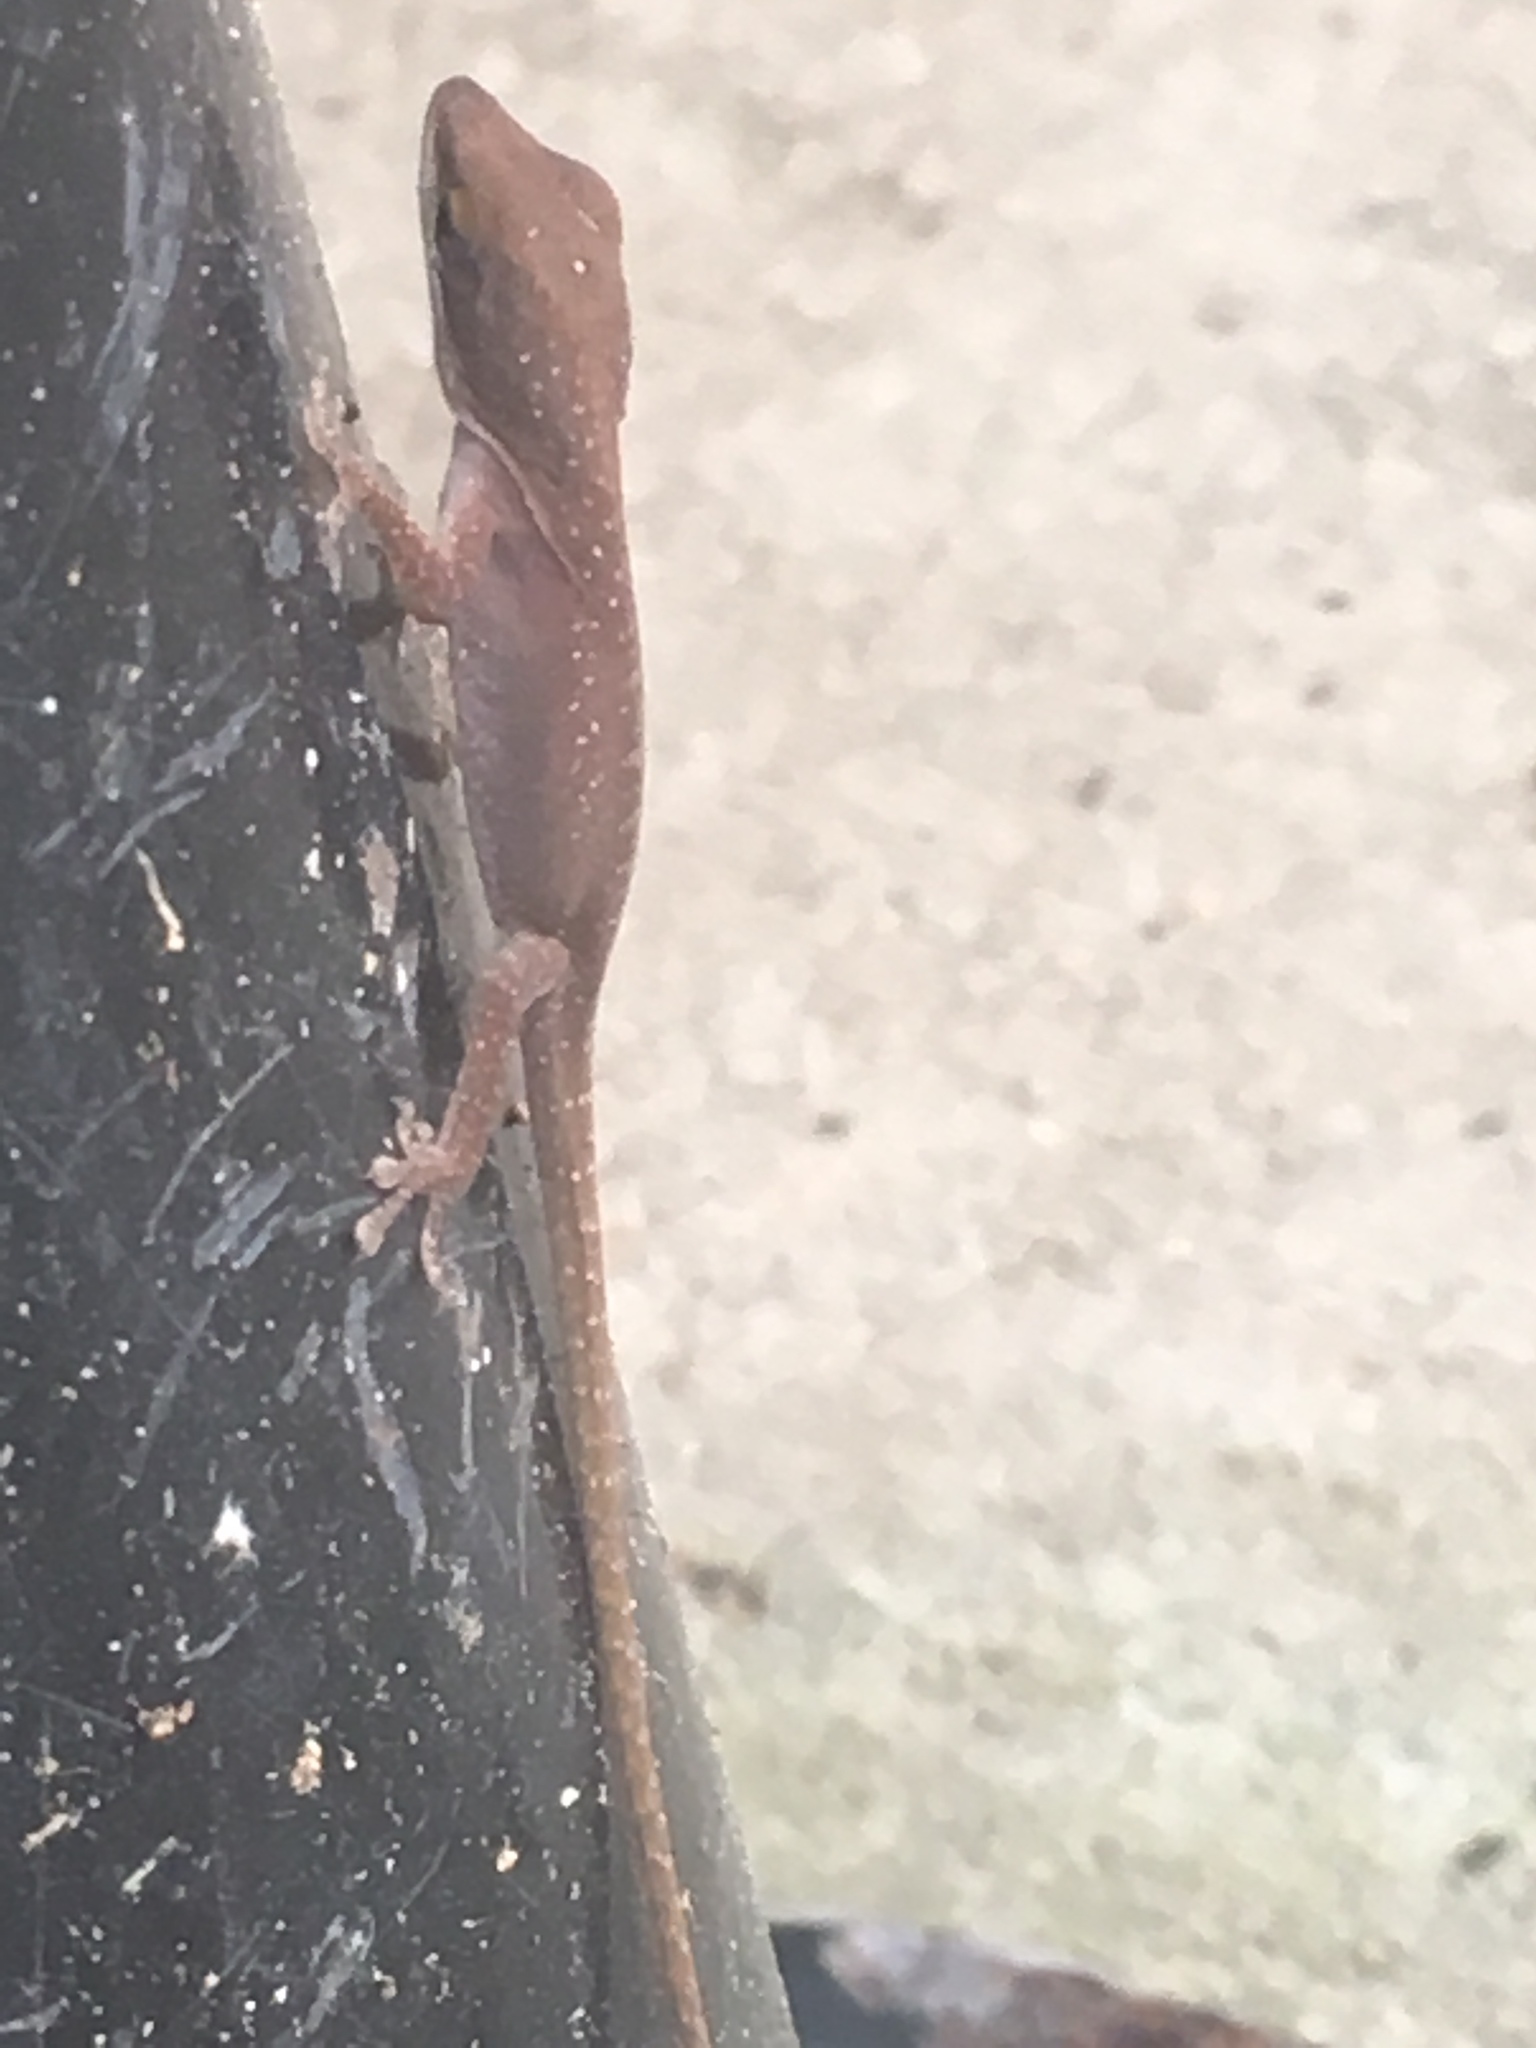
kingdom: Animalia
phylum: Chordata
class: Squamata
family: Dactyloidae
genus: Anolis
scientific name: Anolis carolinensis
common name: Green anole
